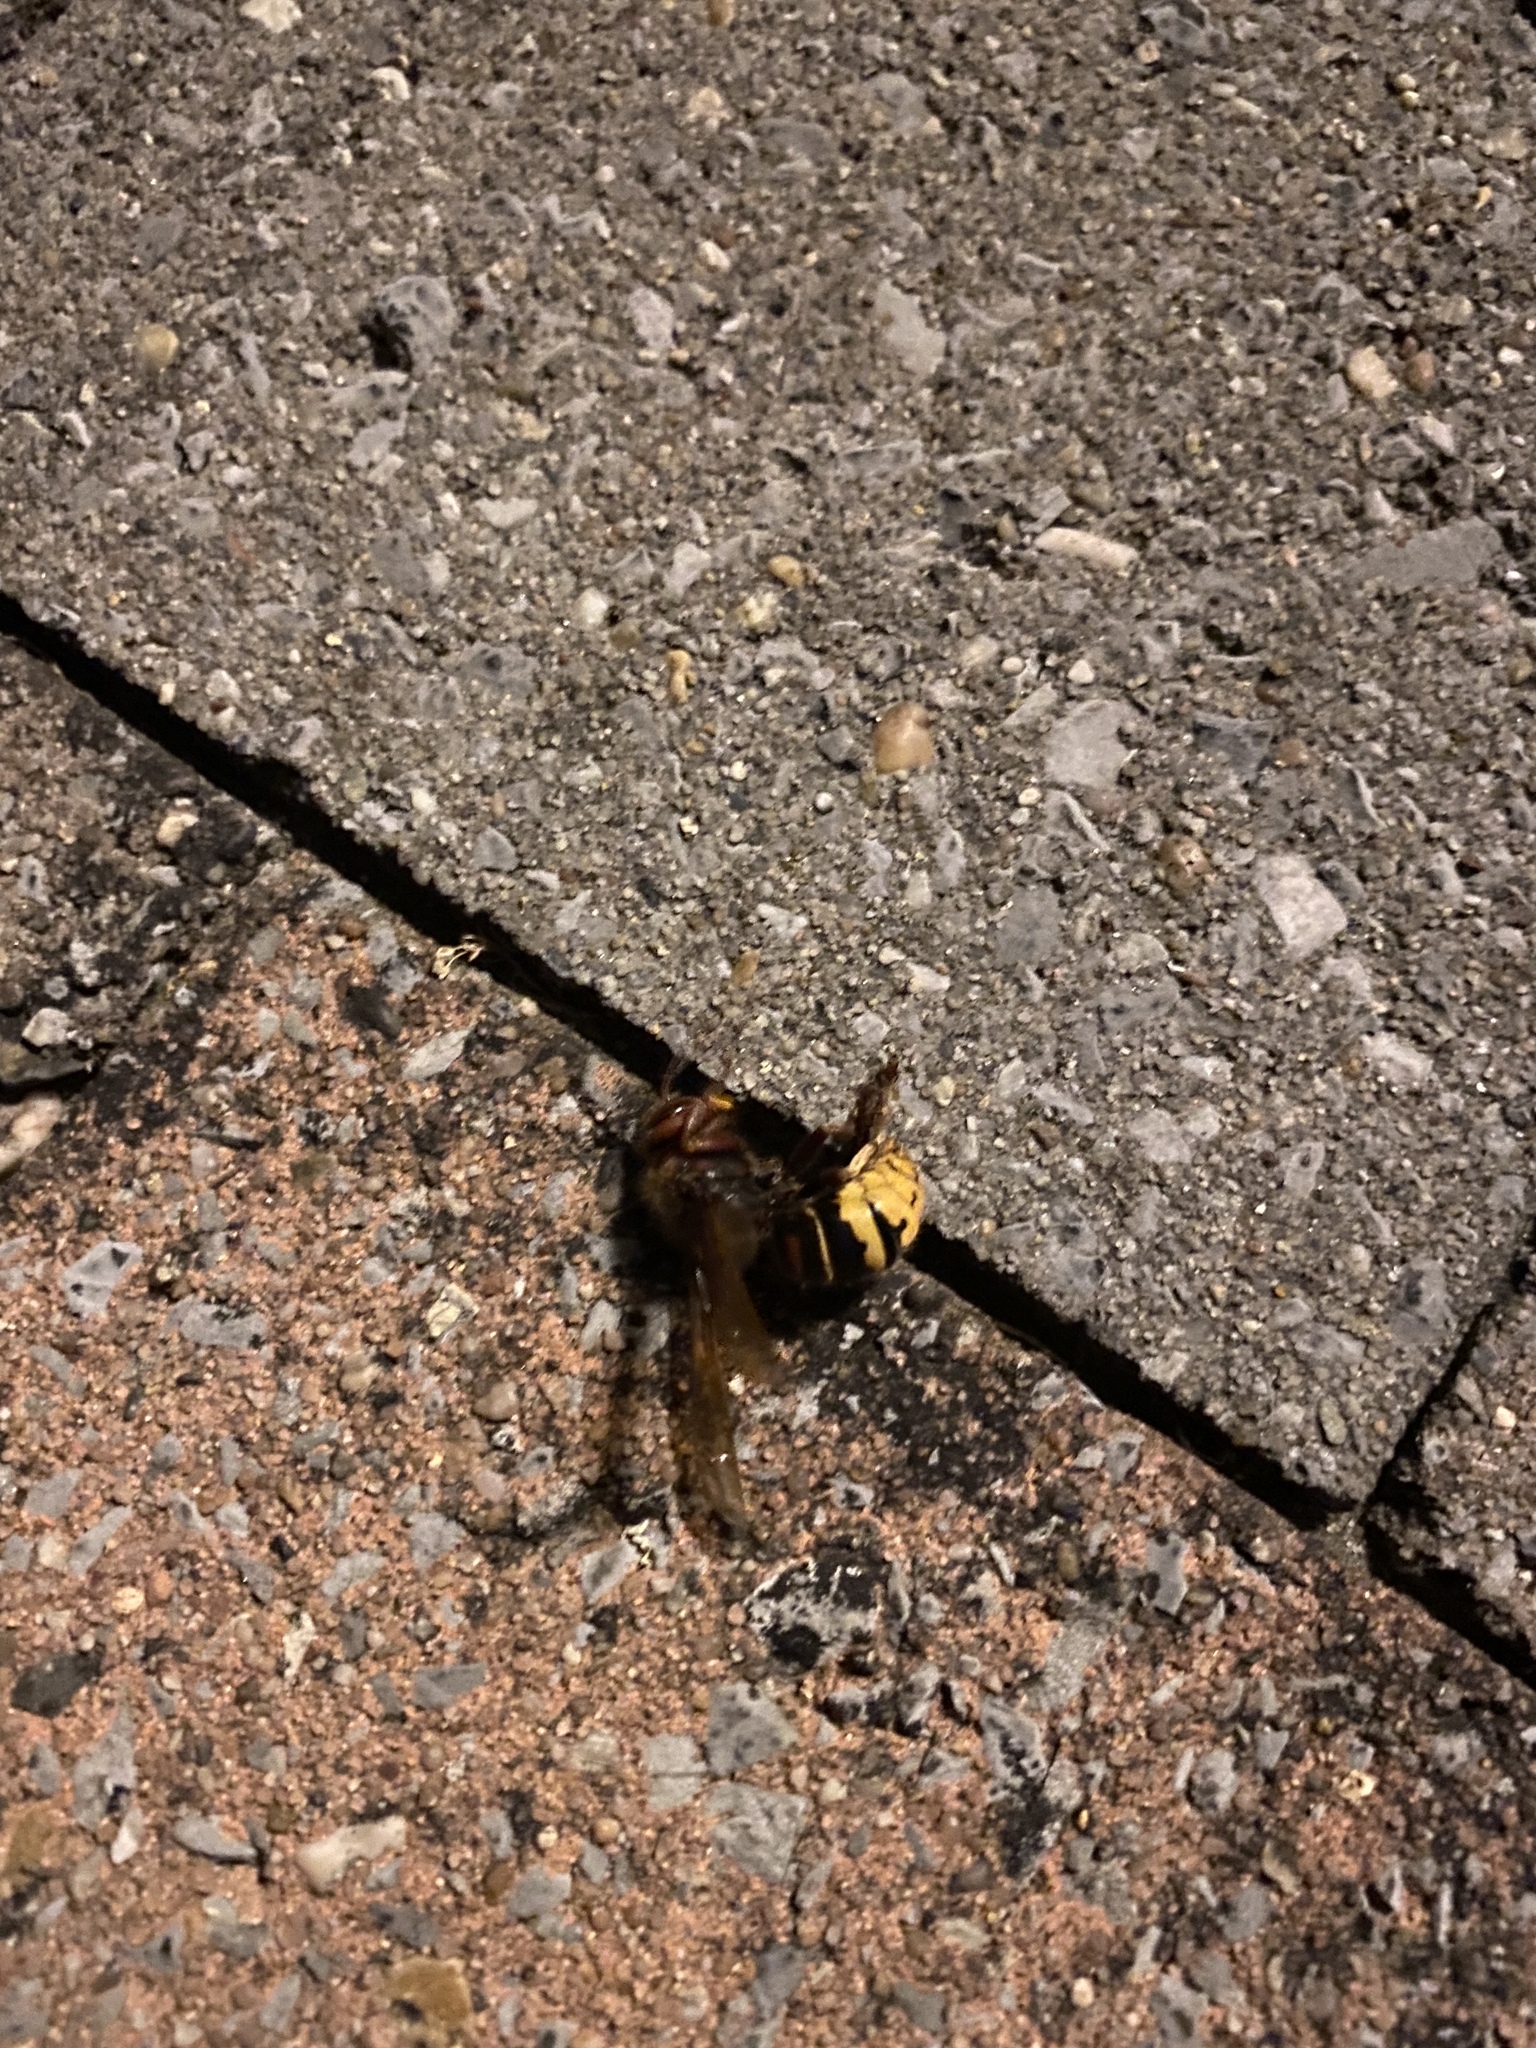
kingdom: Animalia
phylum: Arthropoda
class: Insecta
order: Hymenoptera
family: Vespidae
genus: Vespa
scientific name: Vespa crabro
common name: Hornet
